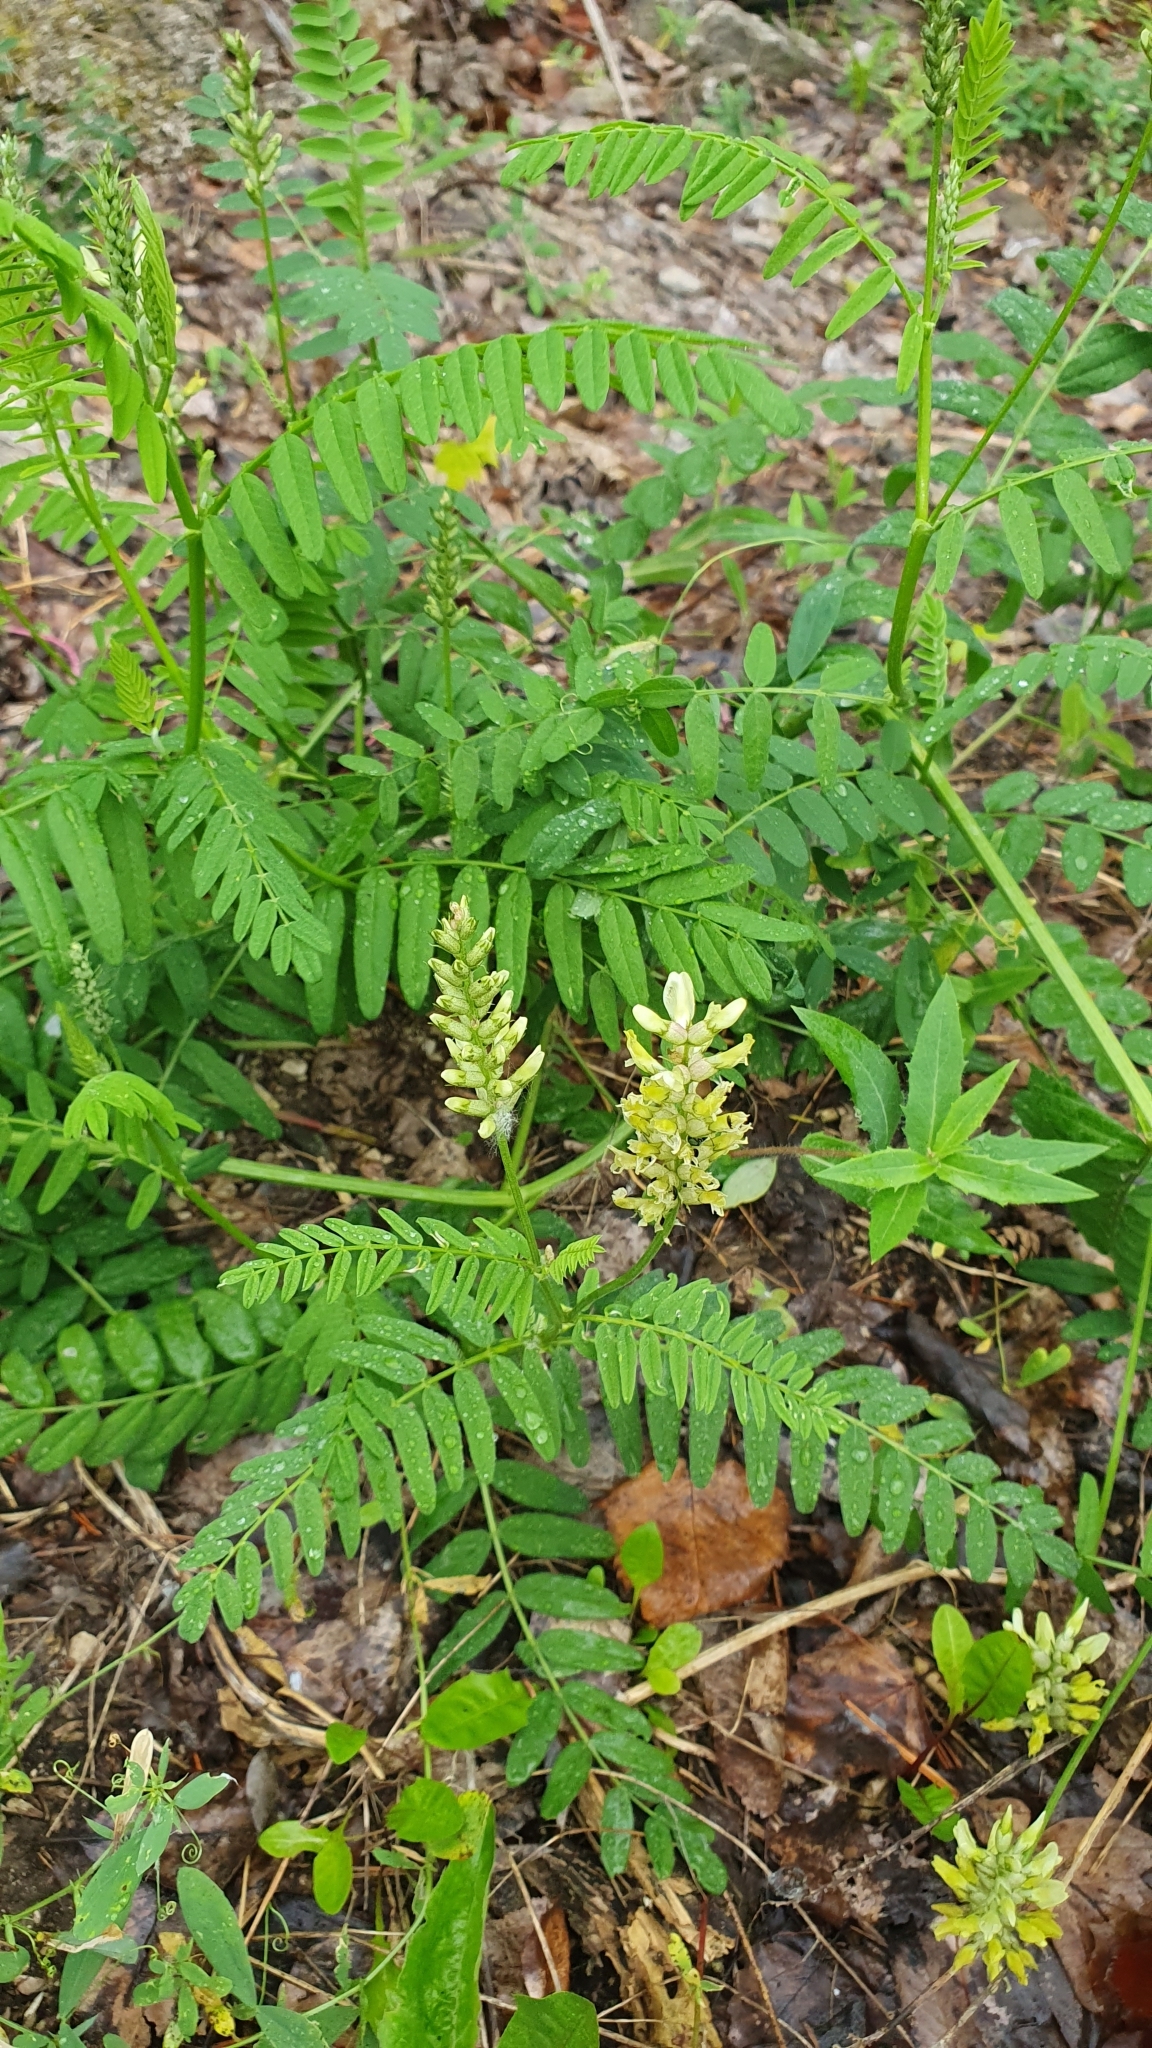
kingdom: Plantae
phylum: Tracheophyta
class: Magnoliopsida
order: Fabales
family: Fabaceae
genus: Astragalus
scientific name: Astragalus cicer
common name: Chick-pea milk-vetch
